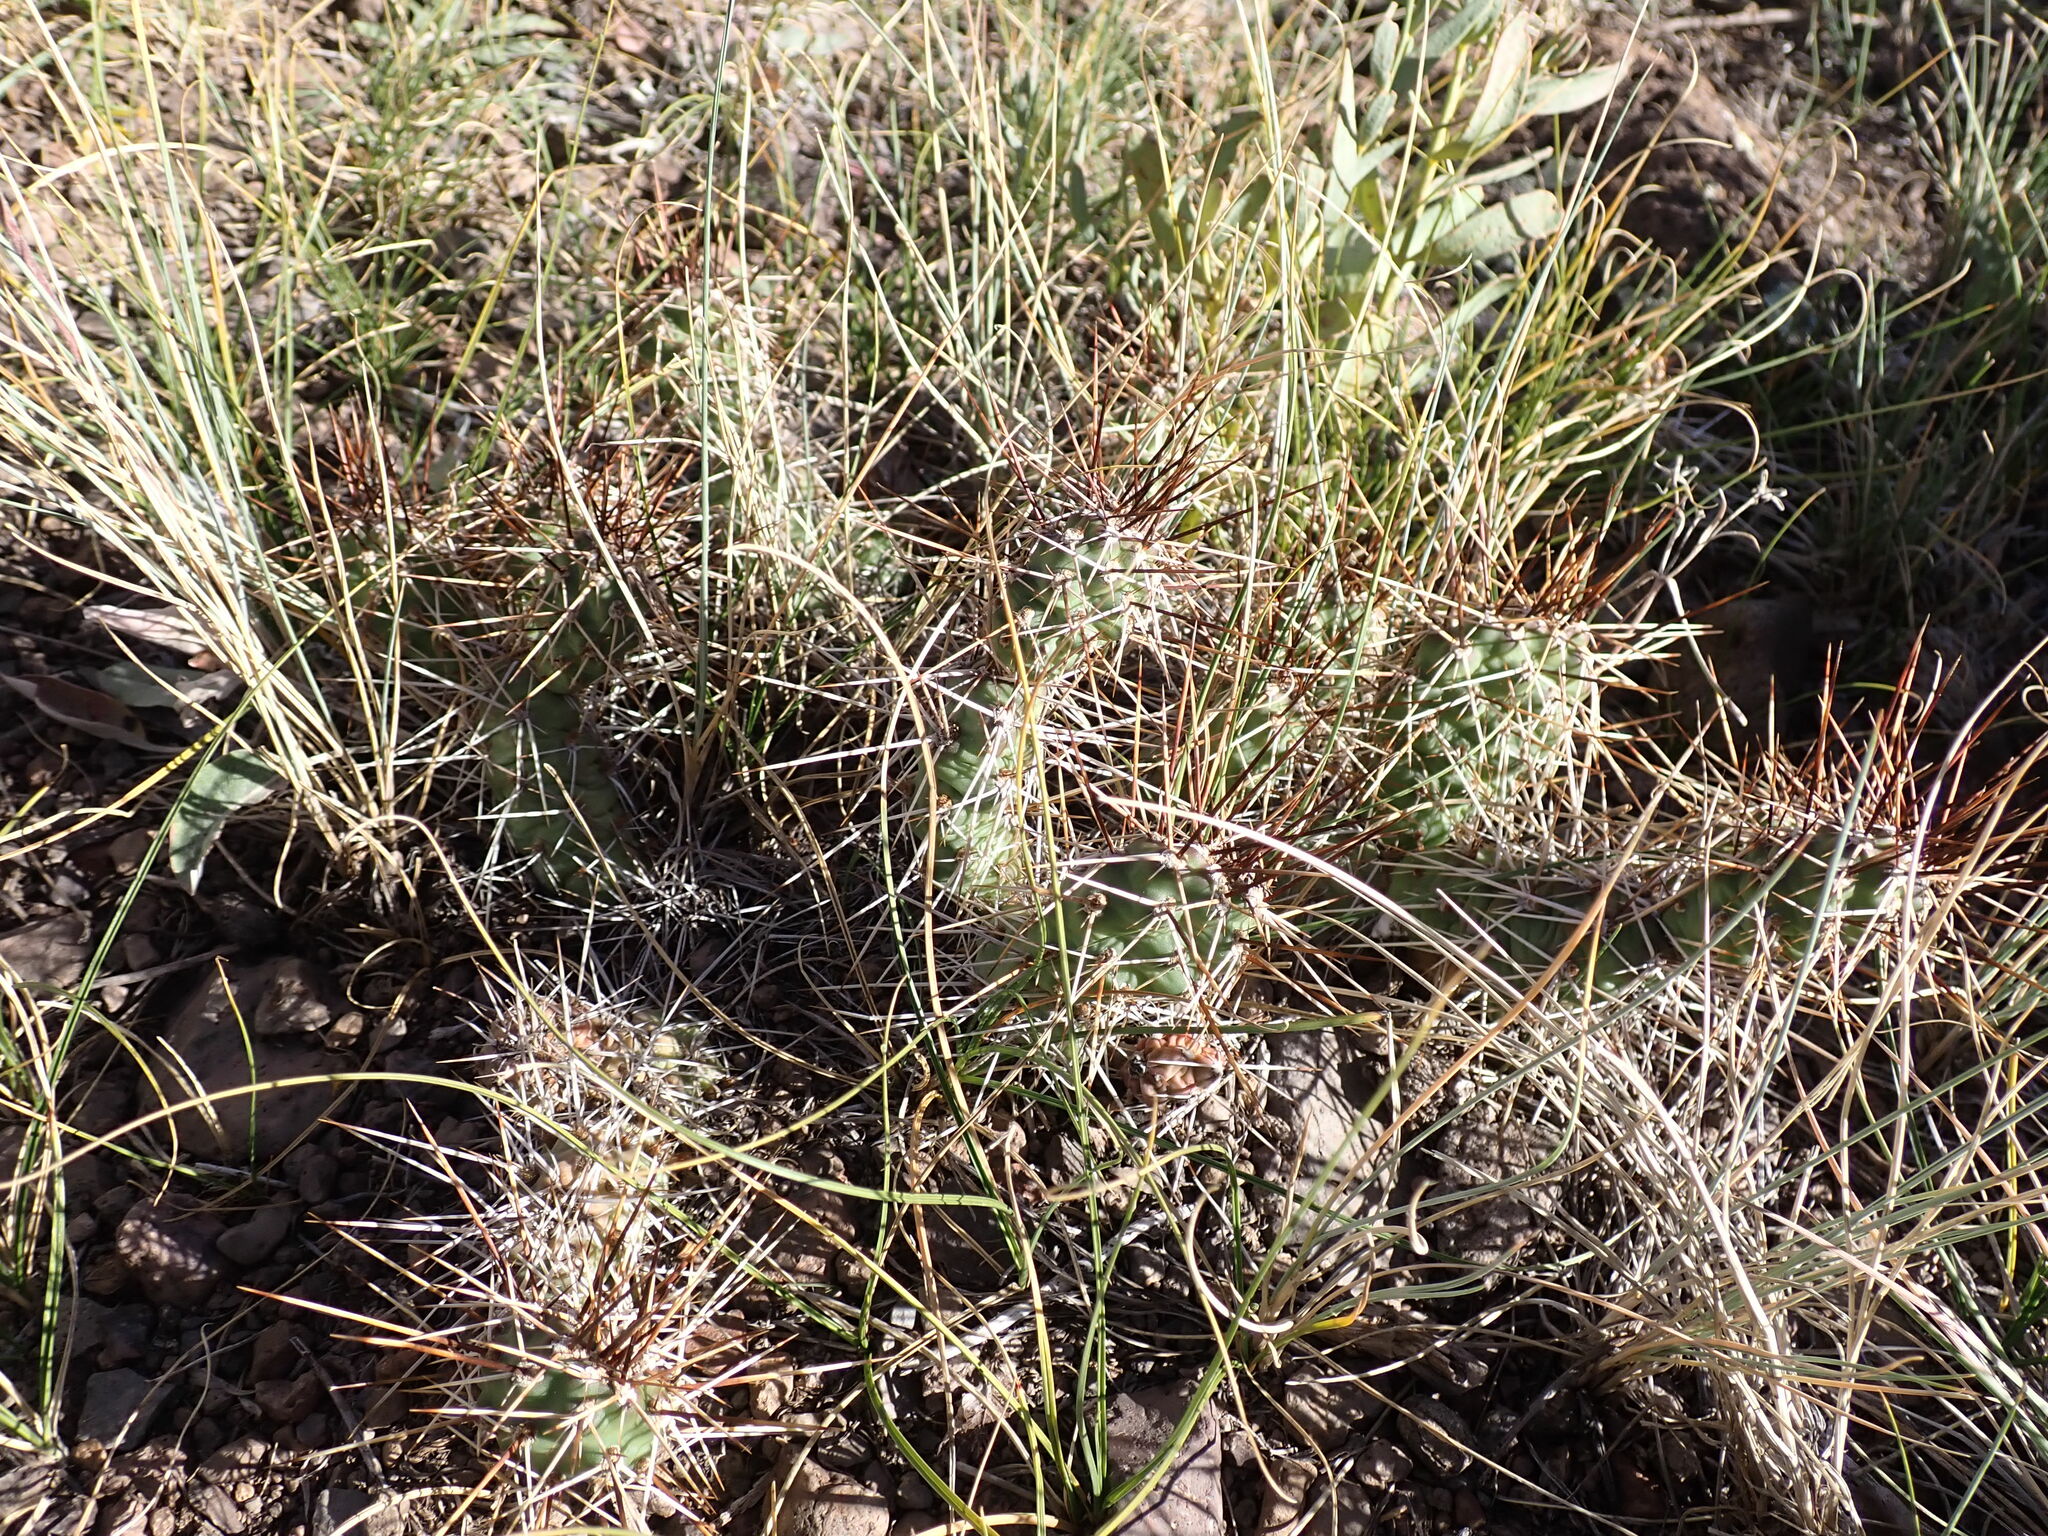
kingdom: Plantae
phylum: Tracheophyta
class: Magnoliopsida
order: Caryophyllales
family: Cactaceae
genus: Opuntia
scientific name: Opuntia fragilis
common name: Brittle cactus
